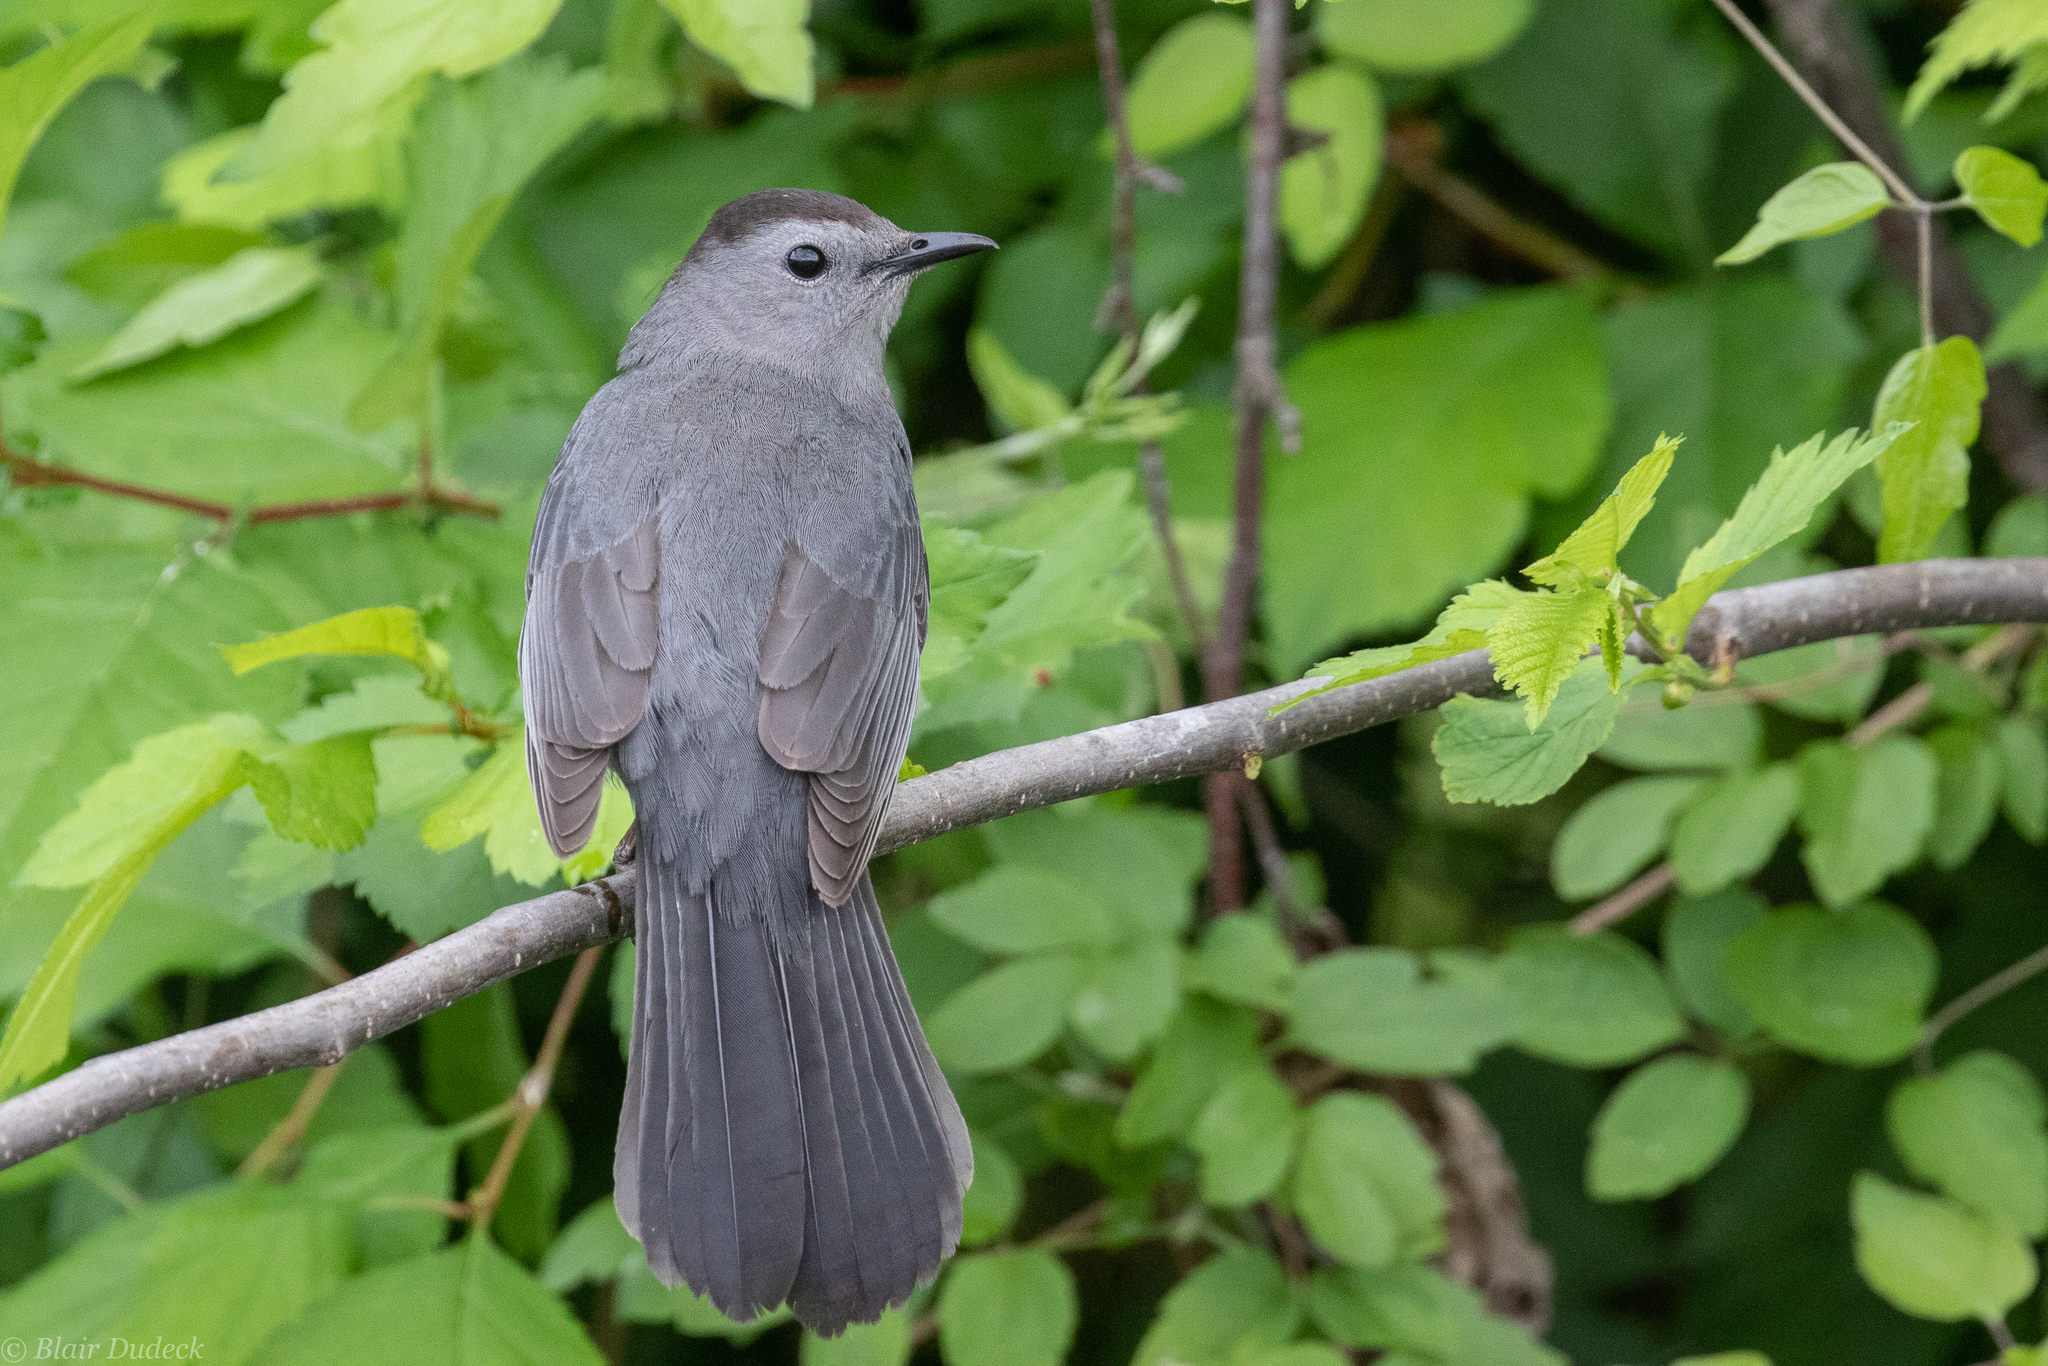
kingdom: Animalia
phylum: Chordata
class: Aves
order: Passeriformes
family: Mimidae
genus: Dumetella
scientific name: Dumetella carolinensis
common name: Gray catbird
